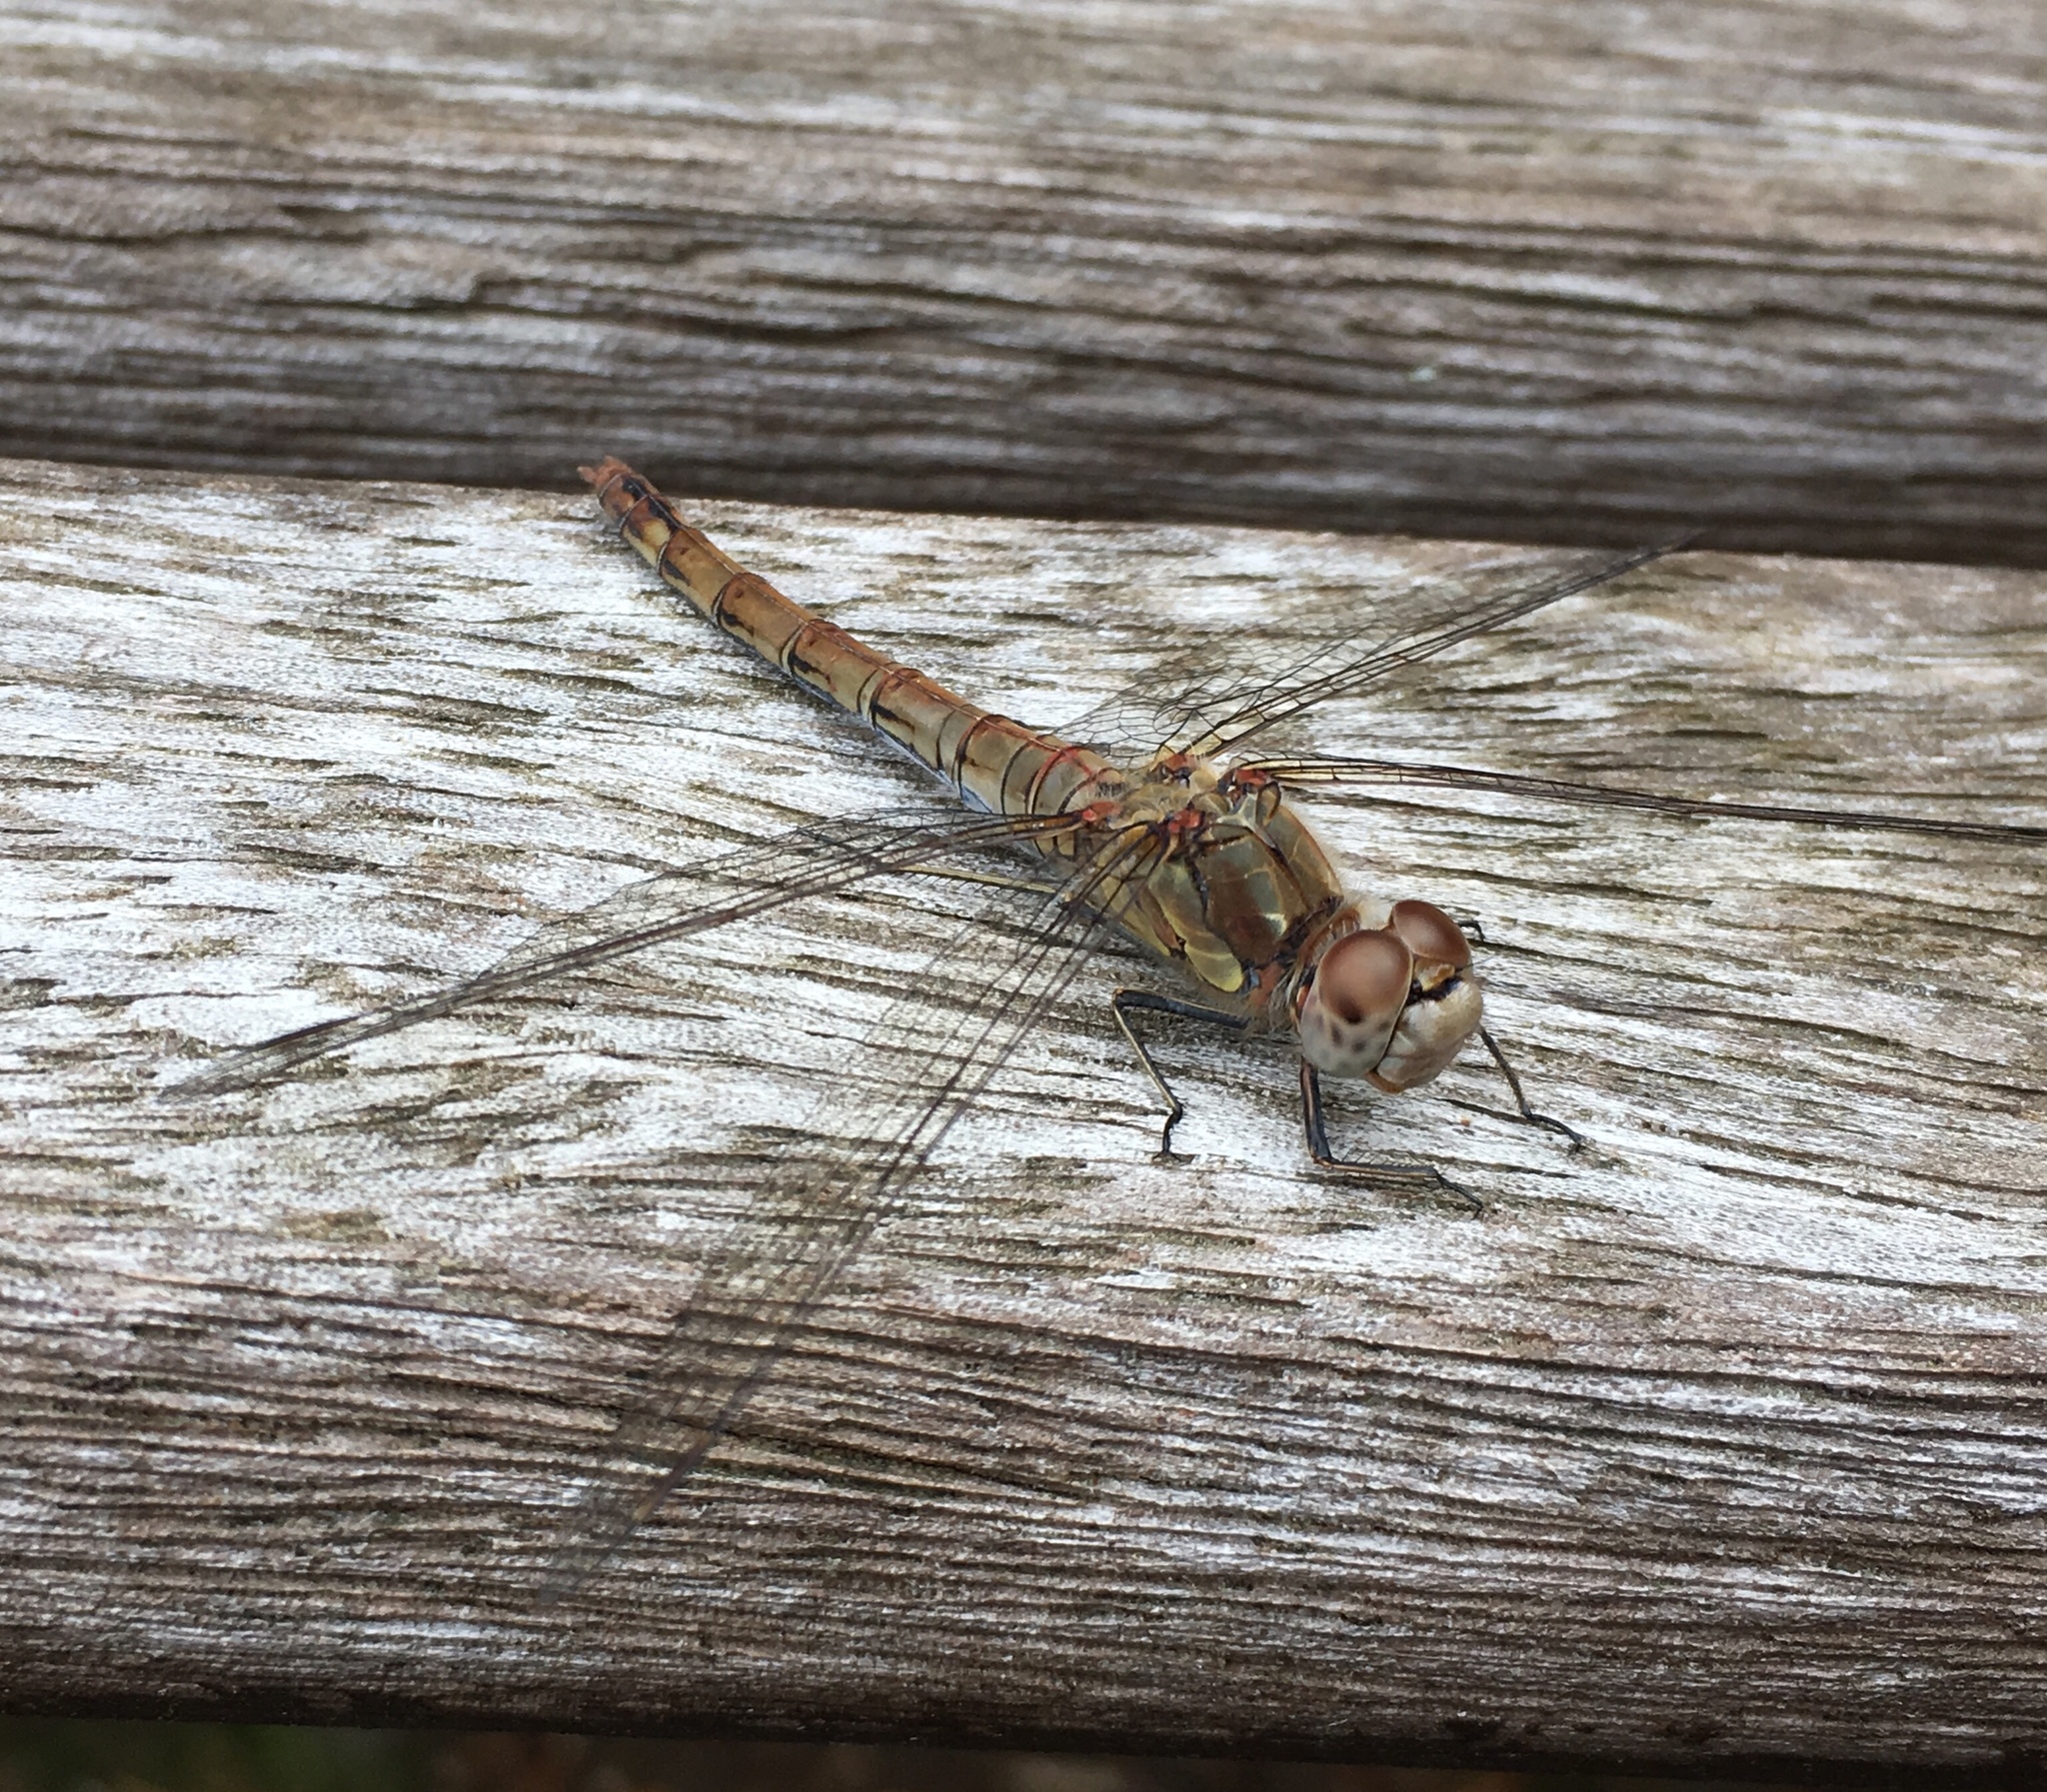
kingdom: Animalia
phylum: Arthropoda
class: Insecta
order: Odonata
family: Libellulidae
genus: Sympetrum
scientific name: Sympetrum striolatum
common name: Common darter
